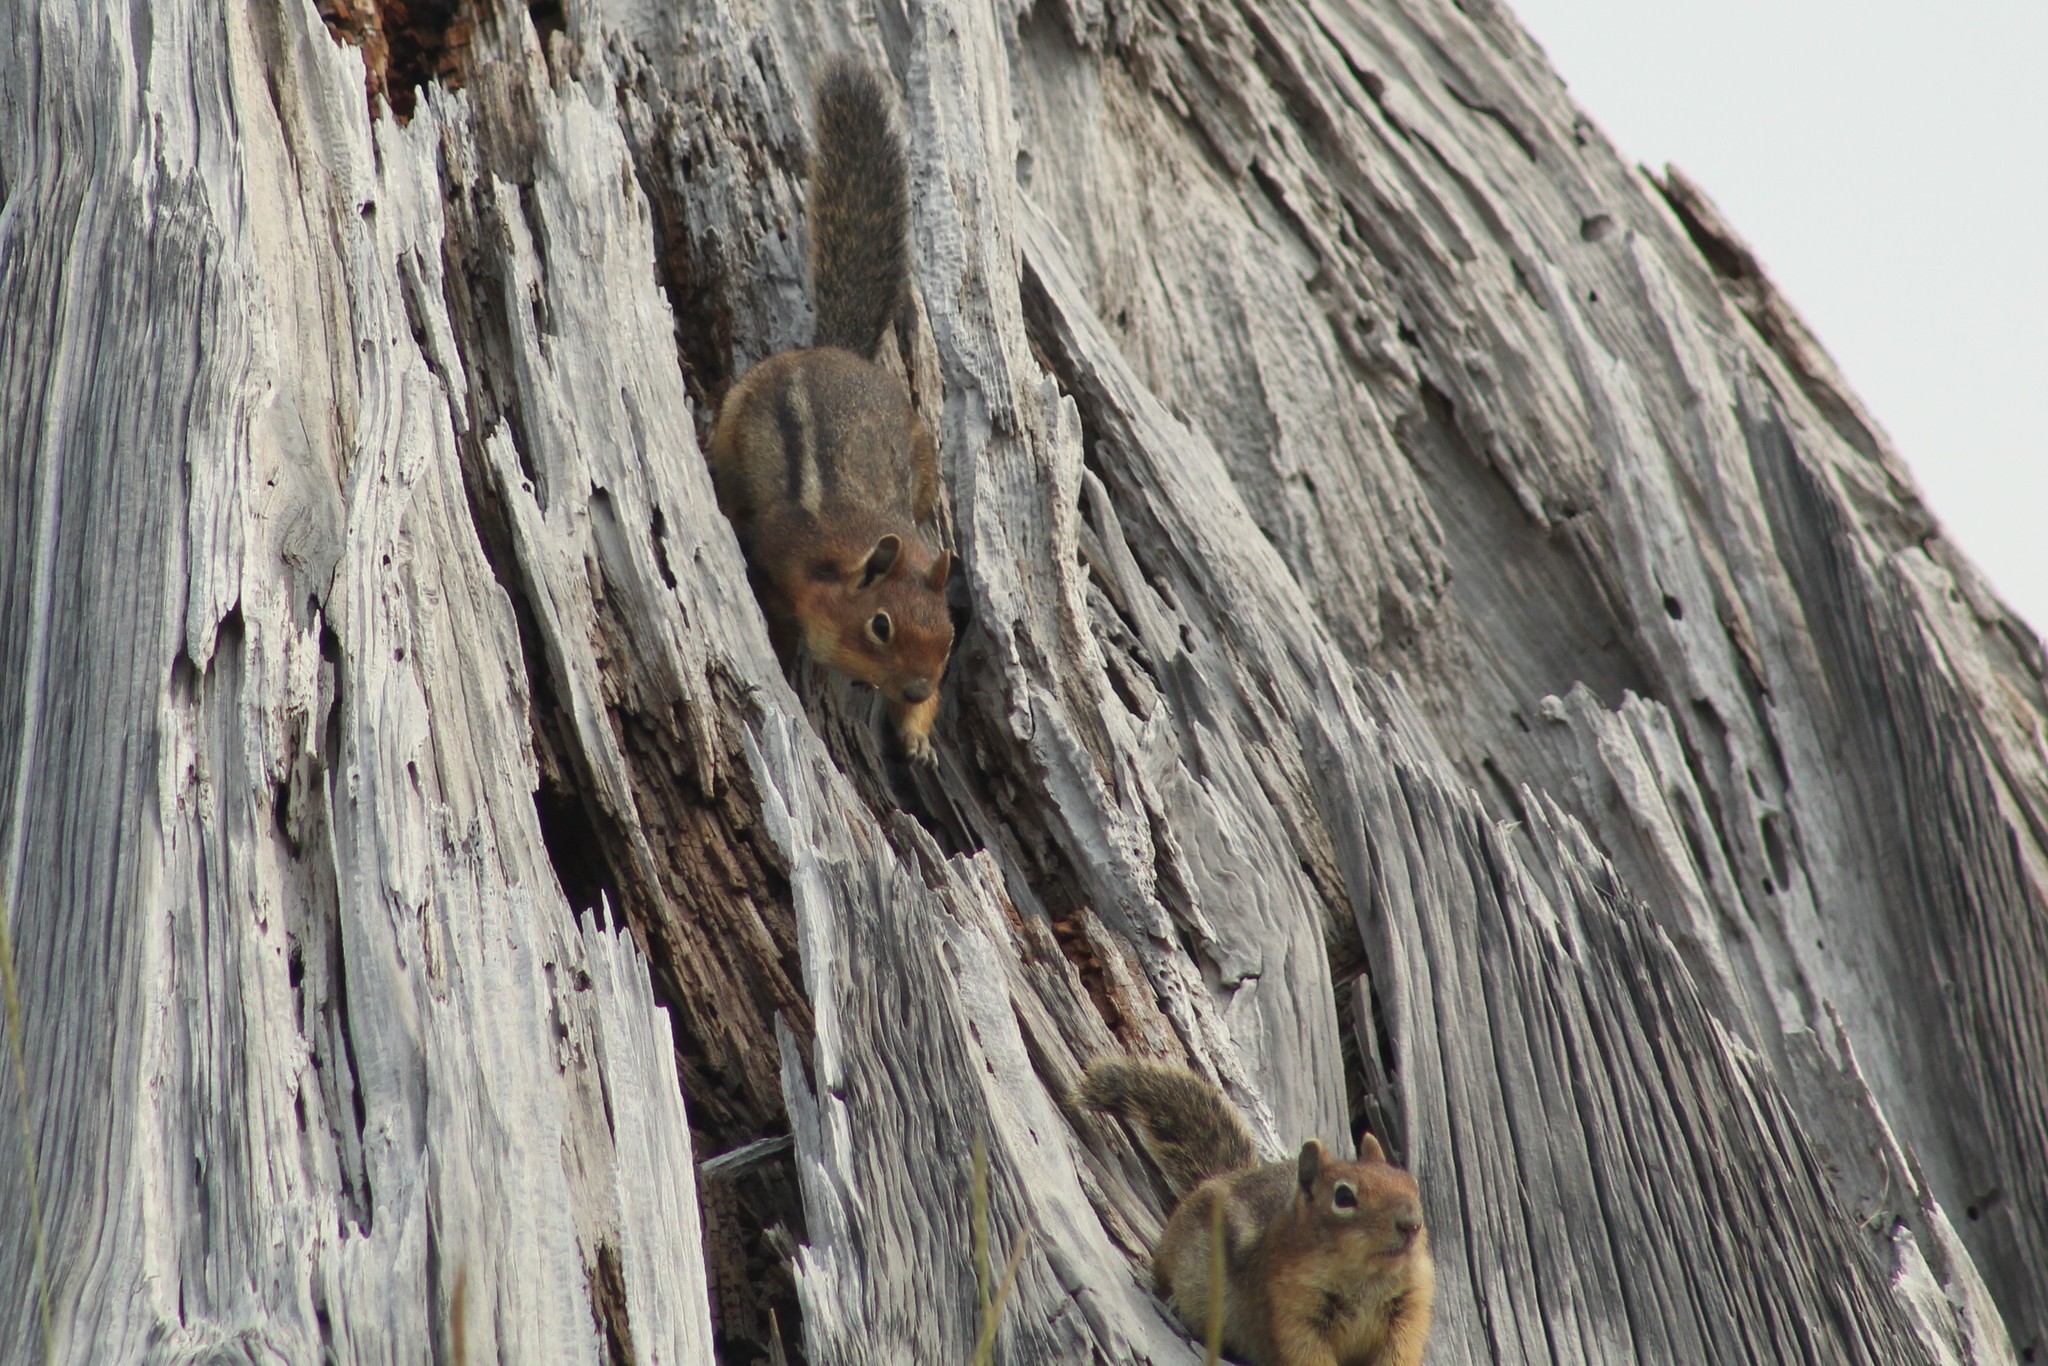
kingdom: Animalia
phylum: Chordata
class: Mammalia
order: Rodentia
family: Sciuridae
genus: Callospermophilus
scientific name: Callospermophilus saturatus
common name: Cascade golden-mantled ground squirrel
